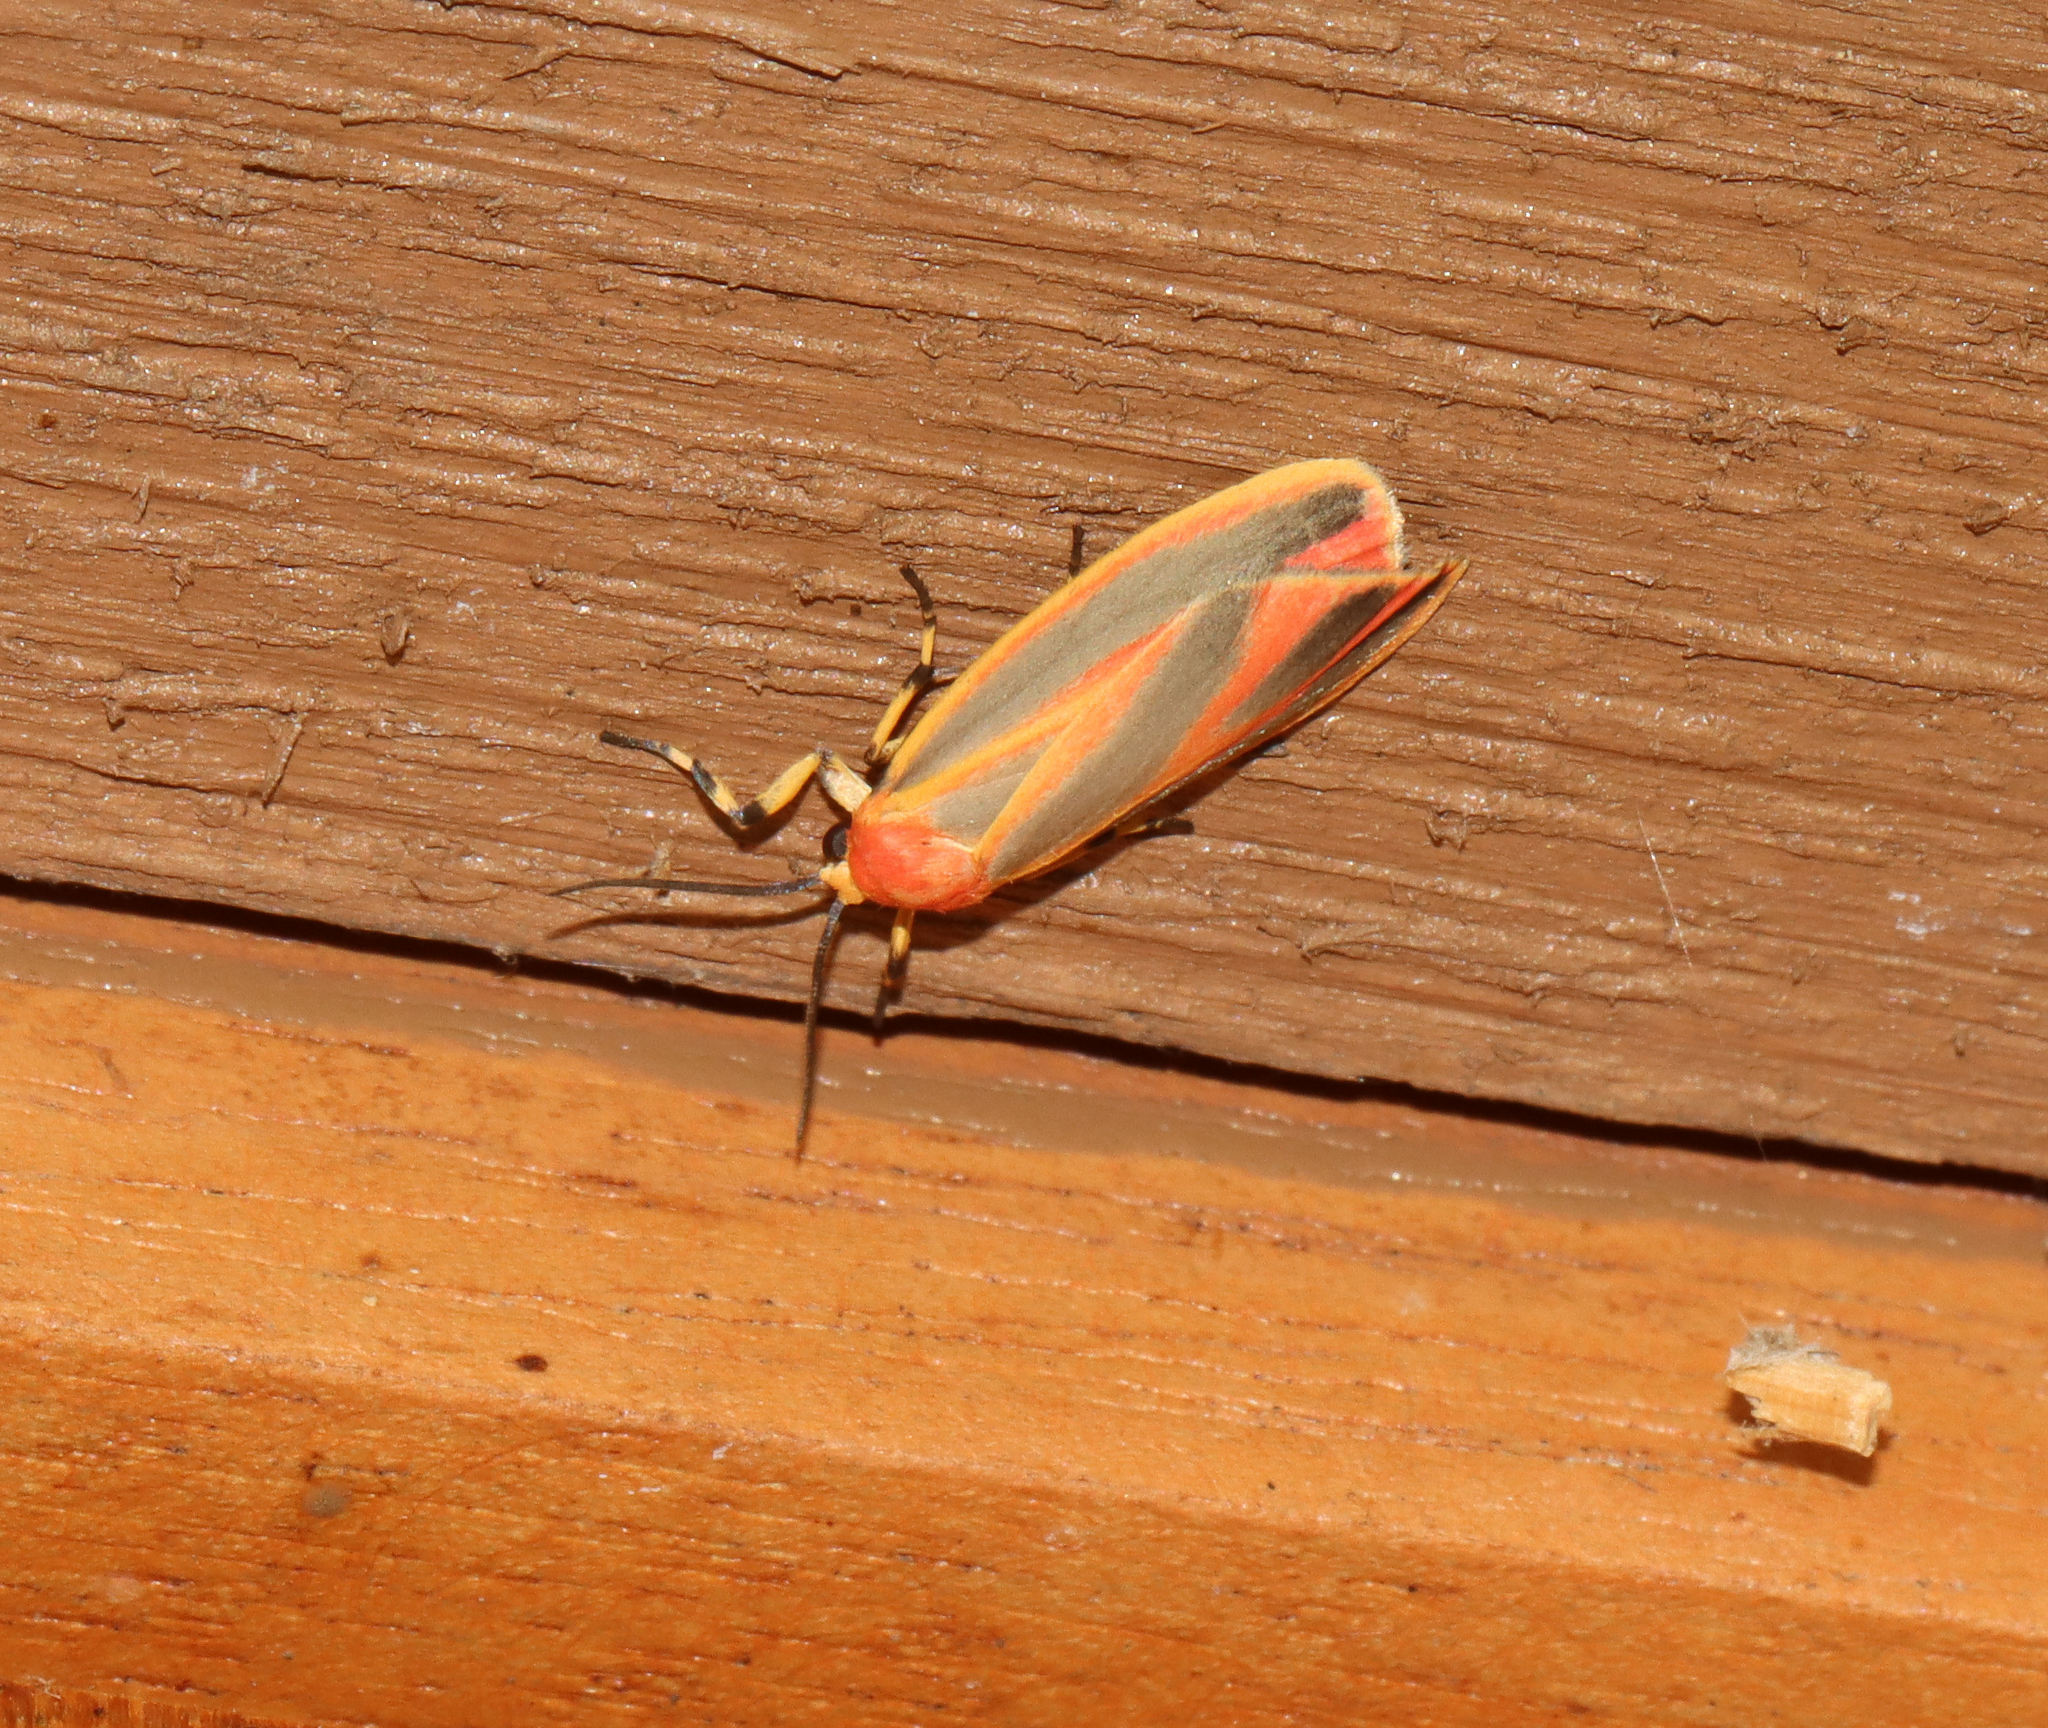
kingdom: Animalia
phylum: Arthropoda
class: Insecta
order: Lepidoptera
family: Erebidae
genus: Hypoprepia
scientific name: Hypoprepia fucosa
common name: Painted lichen moth
